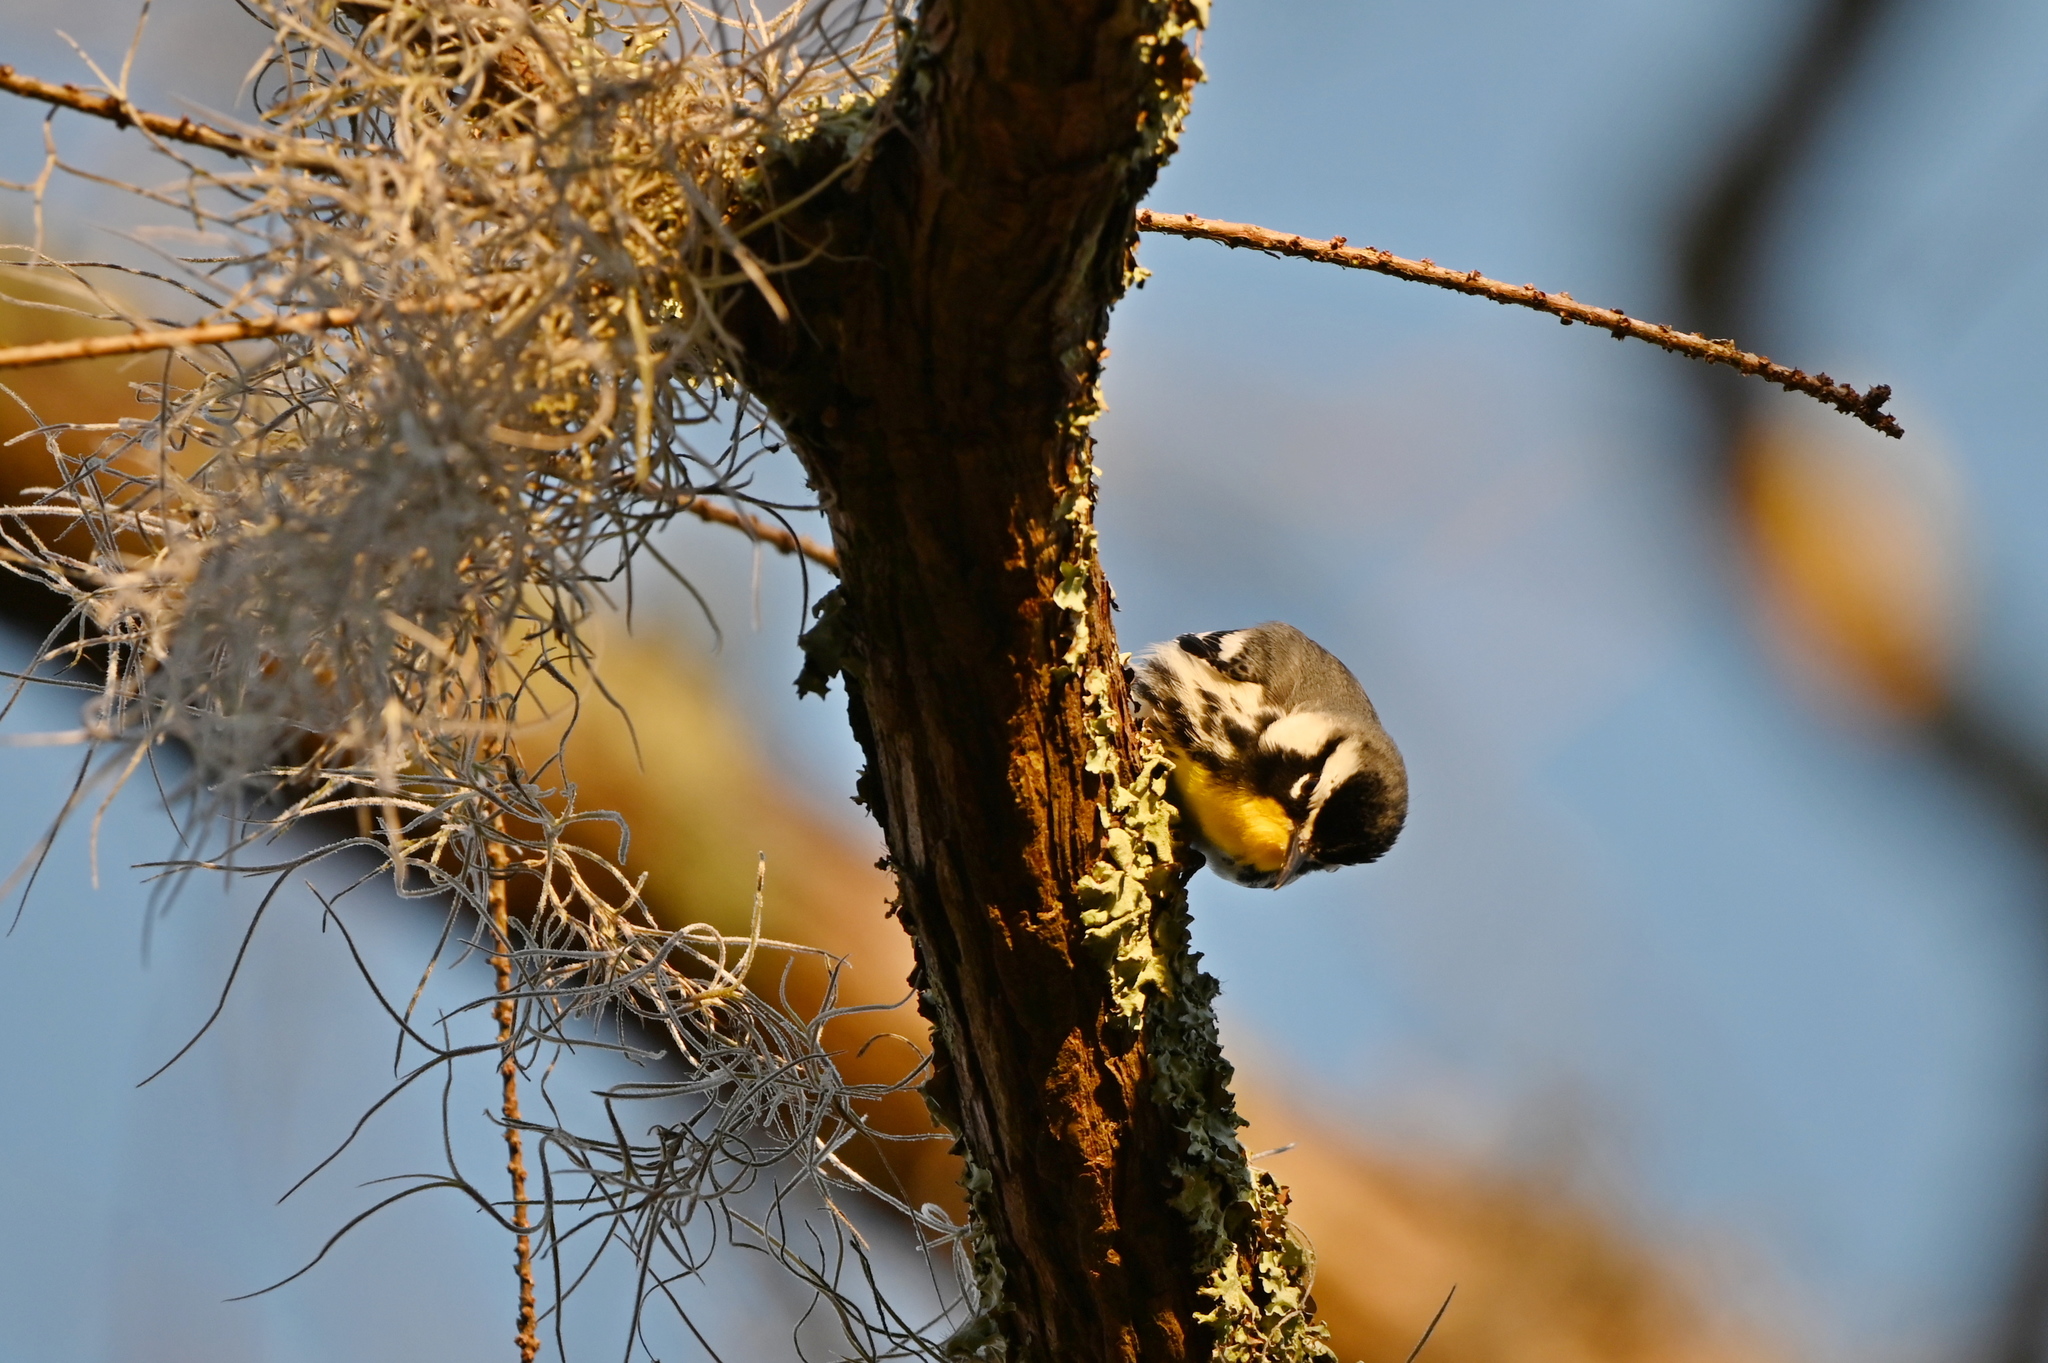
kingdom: Animalia
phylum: Chordata
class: Aves
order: Passeriformes
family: Parulidae
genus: Setophaga
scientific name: Setophaga dominica
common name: Yellow-throated warbler
